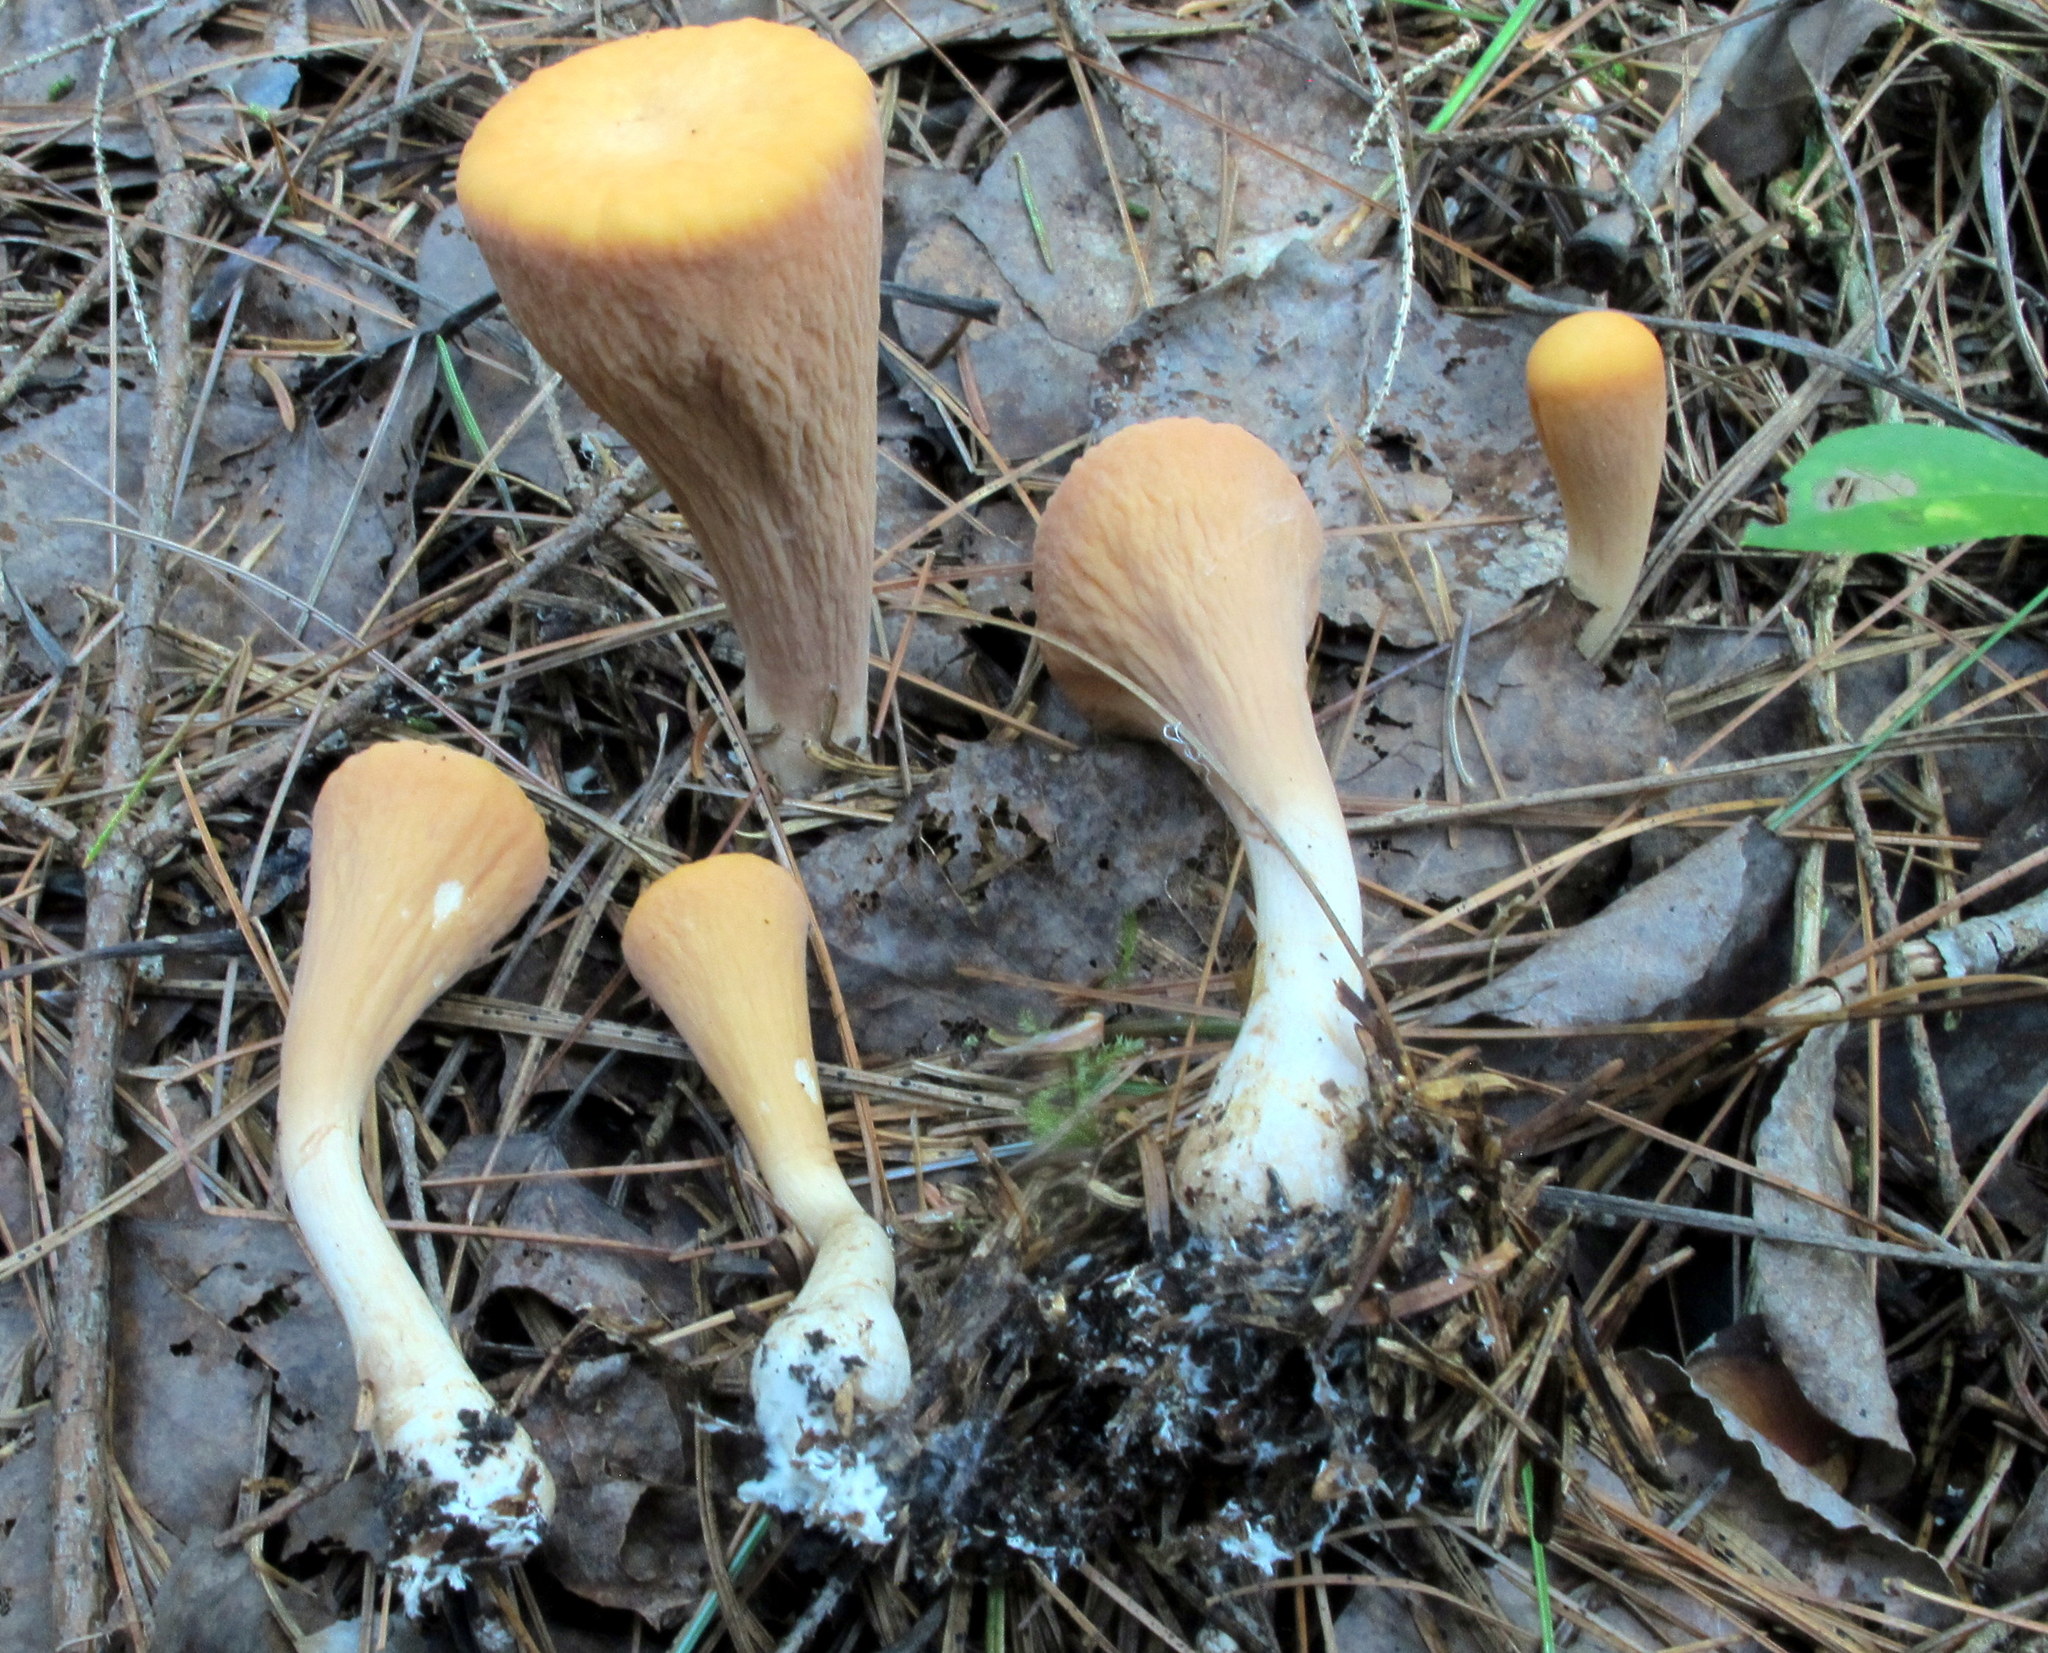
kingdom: Fungi
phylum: Basidiomycota
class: Agaricomycetes
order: Gomphales
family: Clavariadelphaceae
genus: Clavariadelphus
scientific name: Clavariadelphus truncatus
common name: Truncated club
